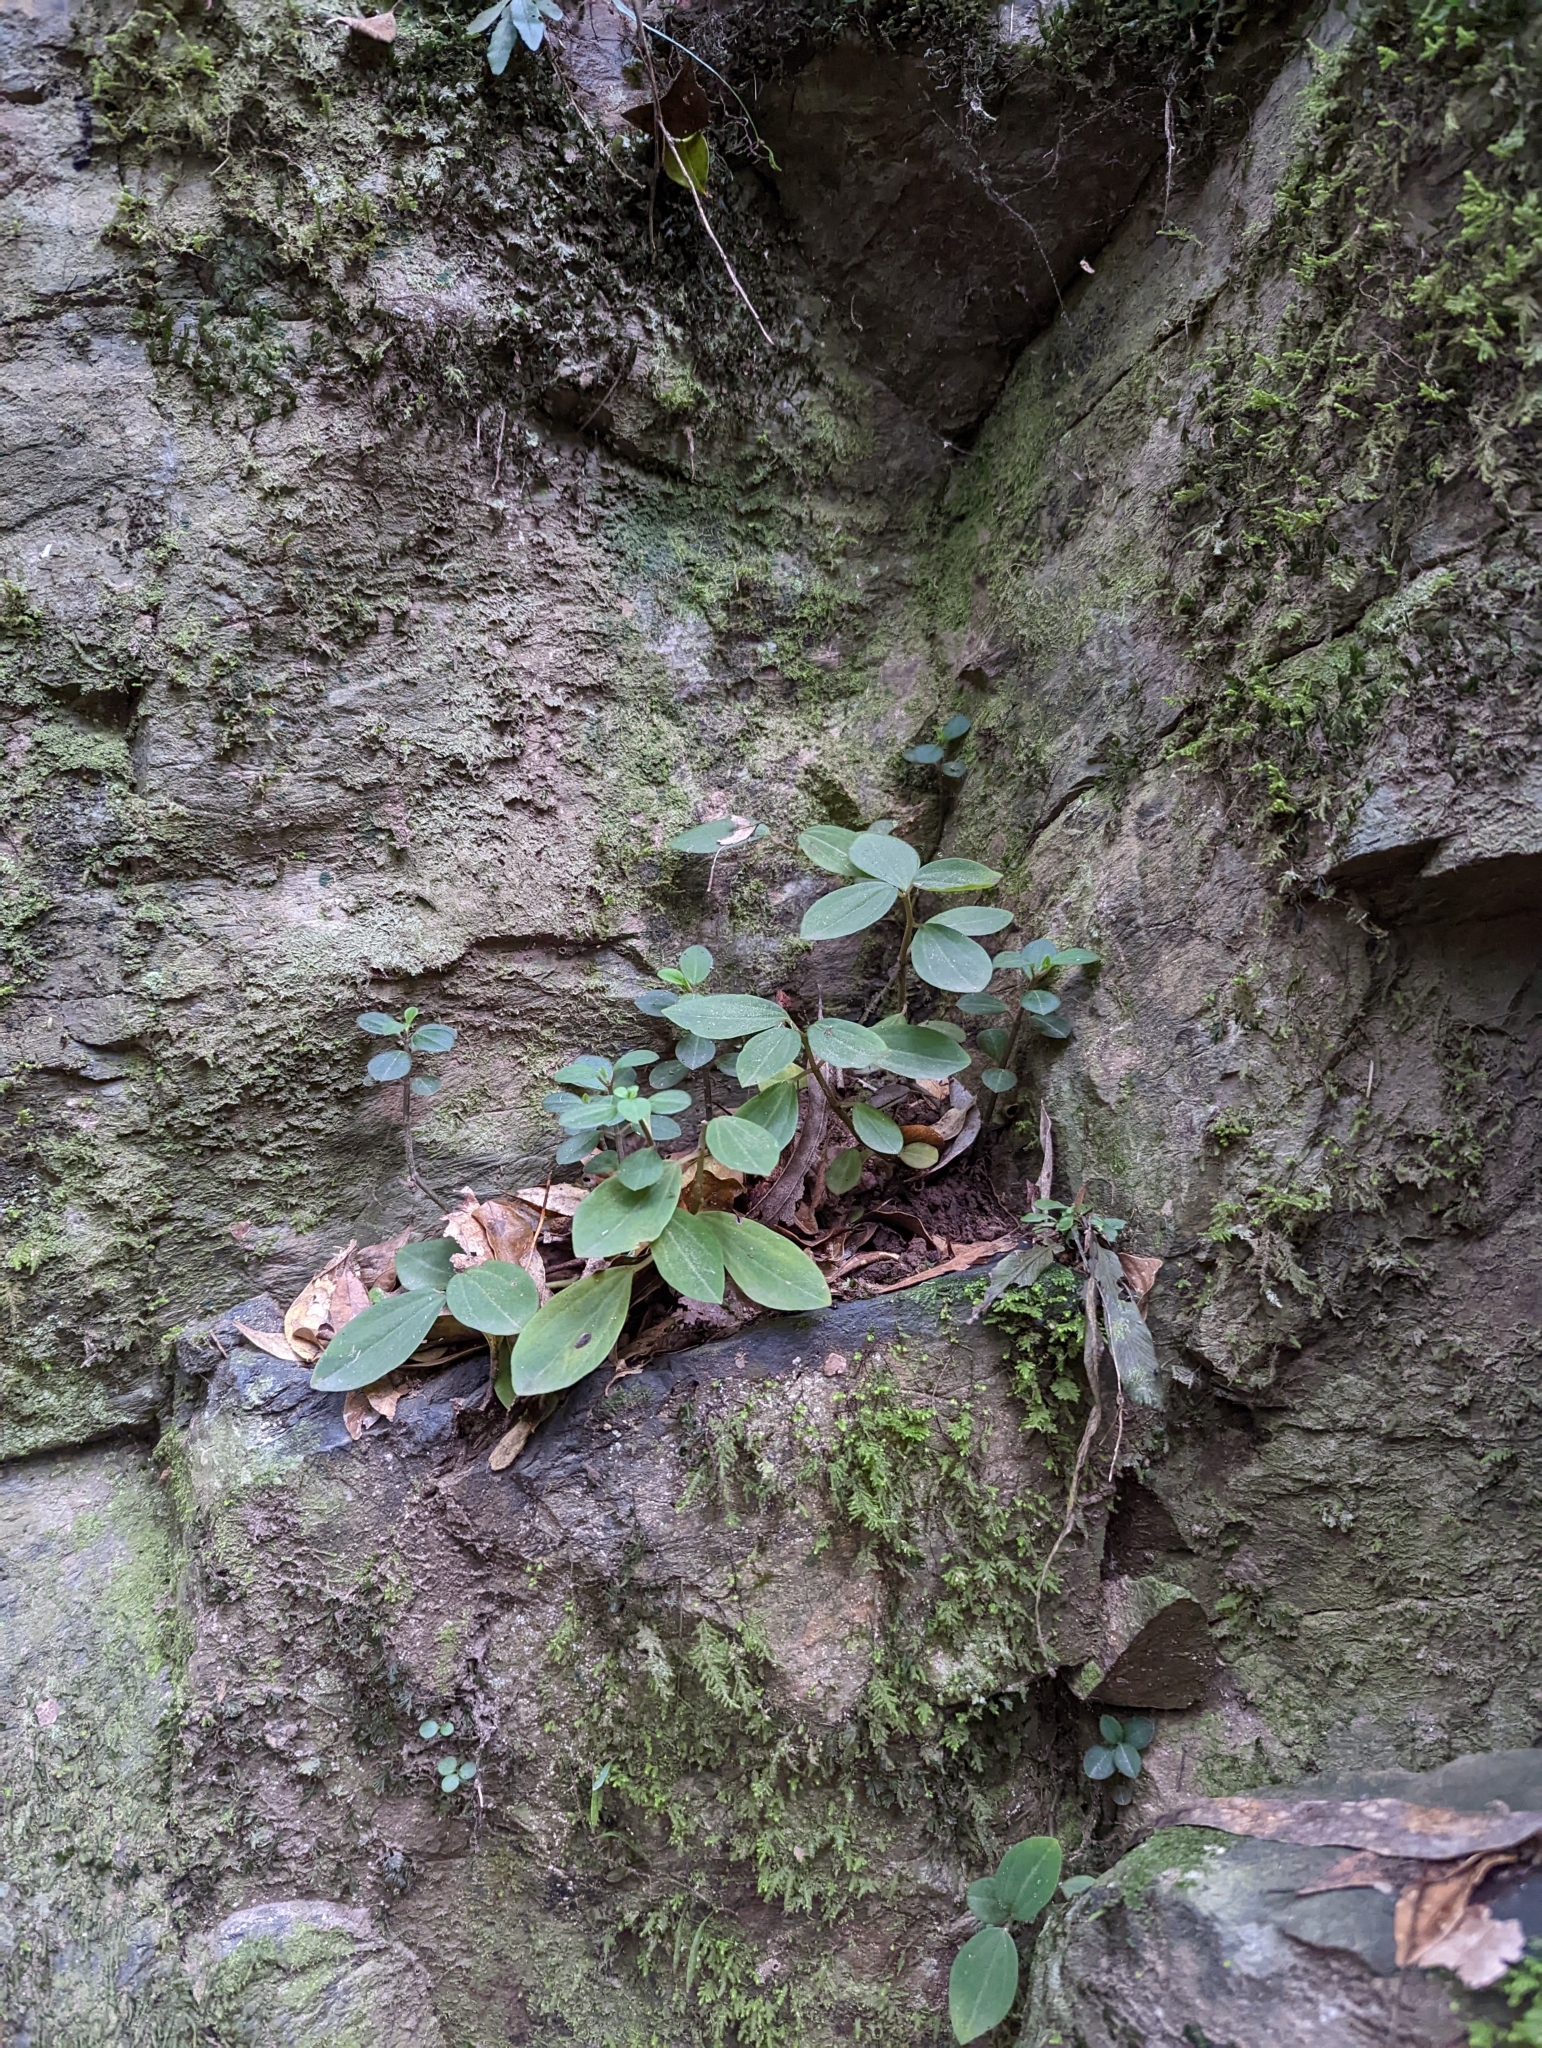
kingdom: Plantae
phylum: Tracheophyta
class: Magnoliopsida
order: Piperales
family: Piperaceae
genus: Peperomia
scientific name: Peperomia leptostachya
